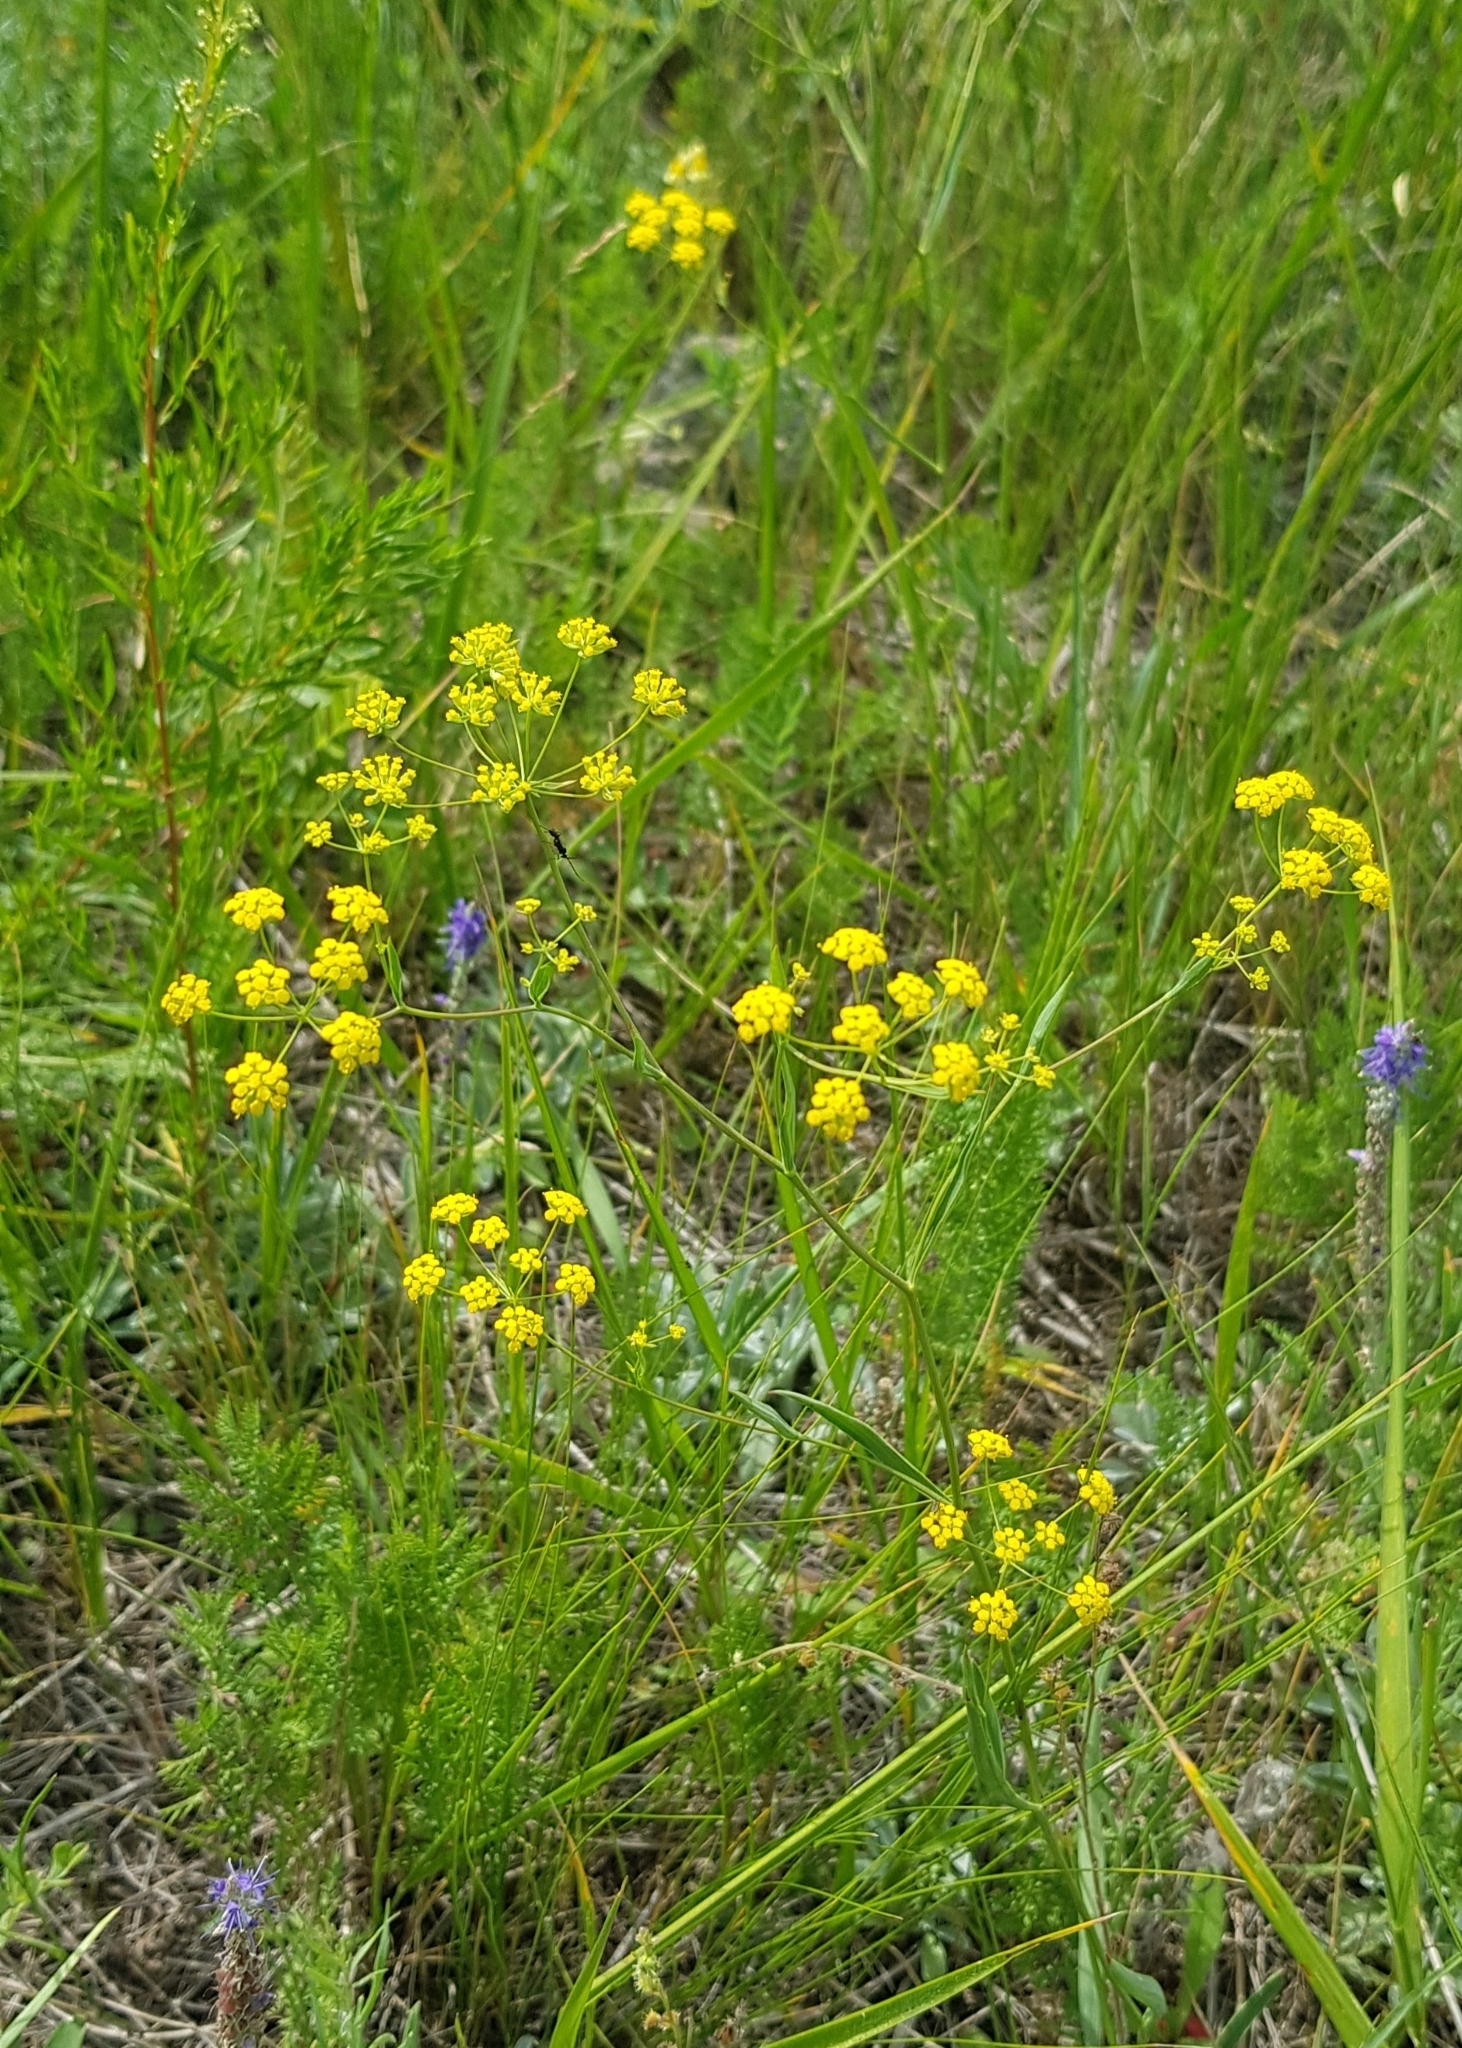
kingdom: Plantae
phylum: Tracheophyta
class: Magnoliopsida
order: Apiales
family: Apiaceae
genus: Bupleurum
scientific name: Bupleurum scorzonerifolium
